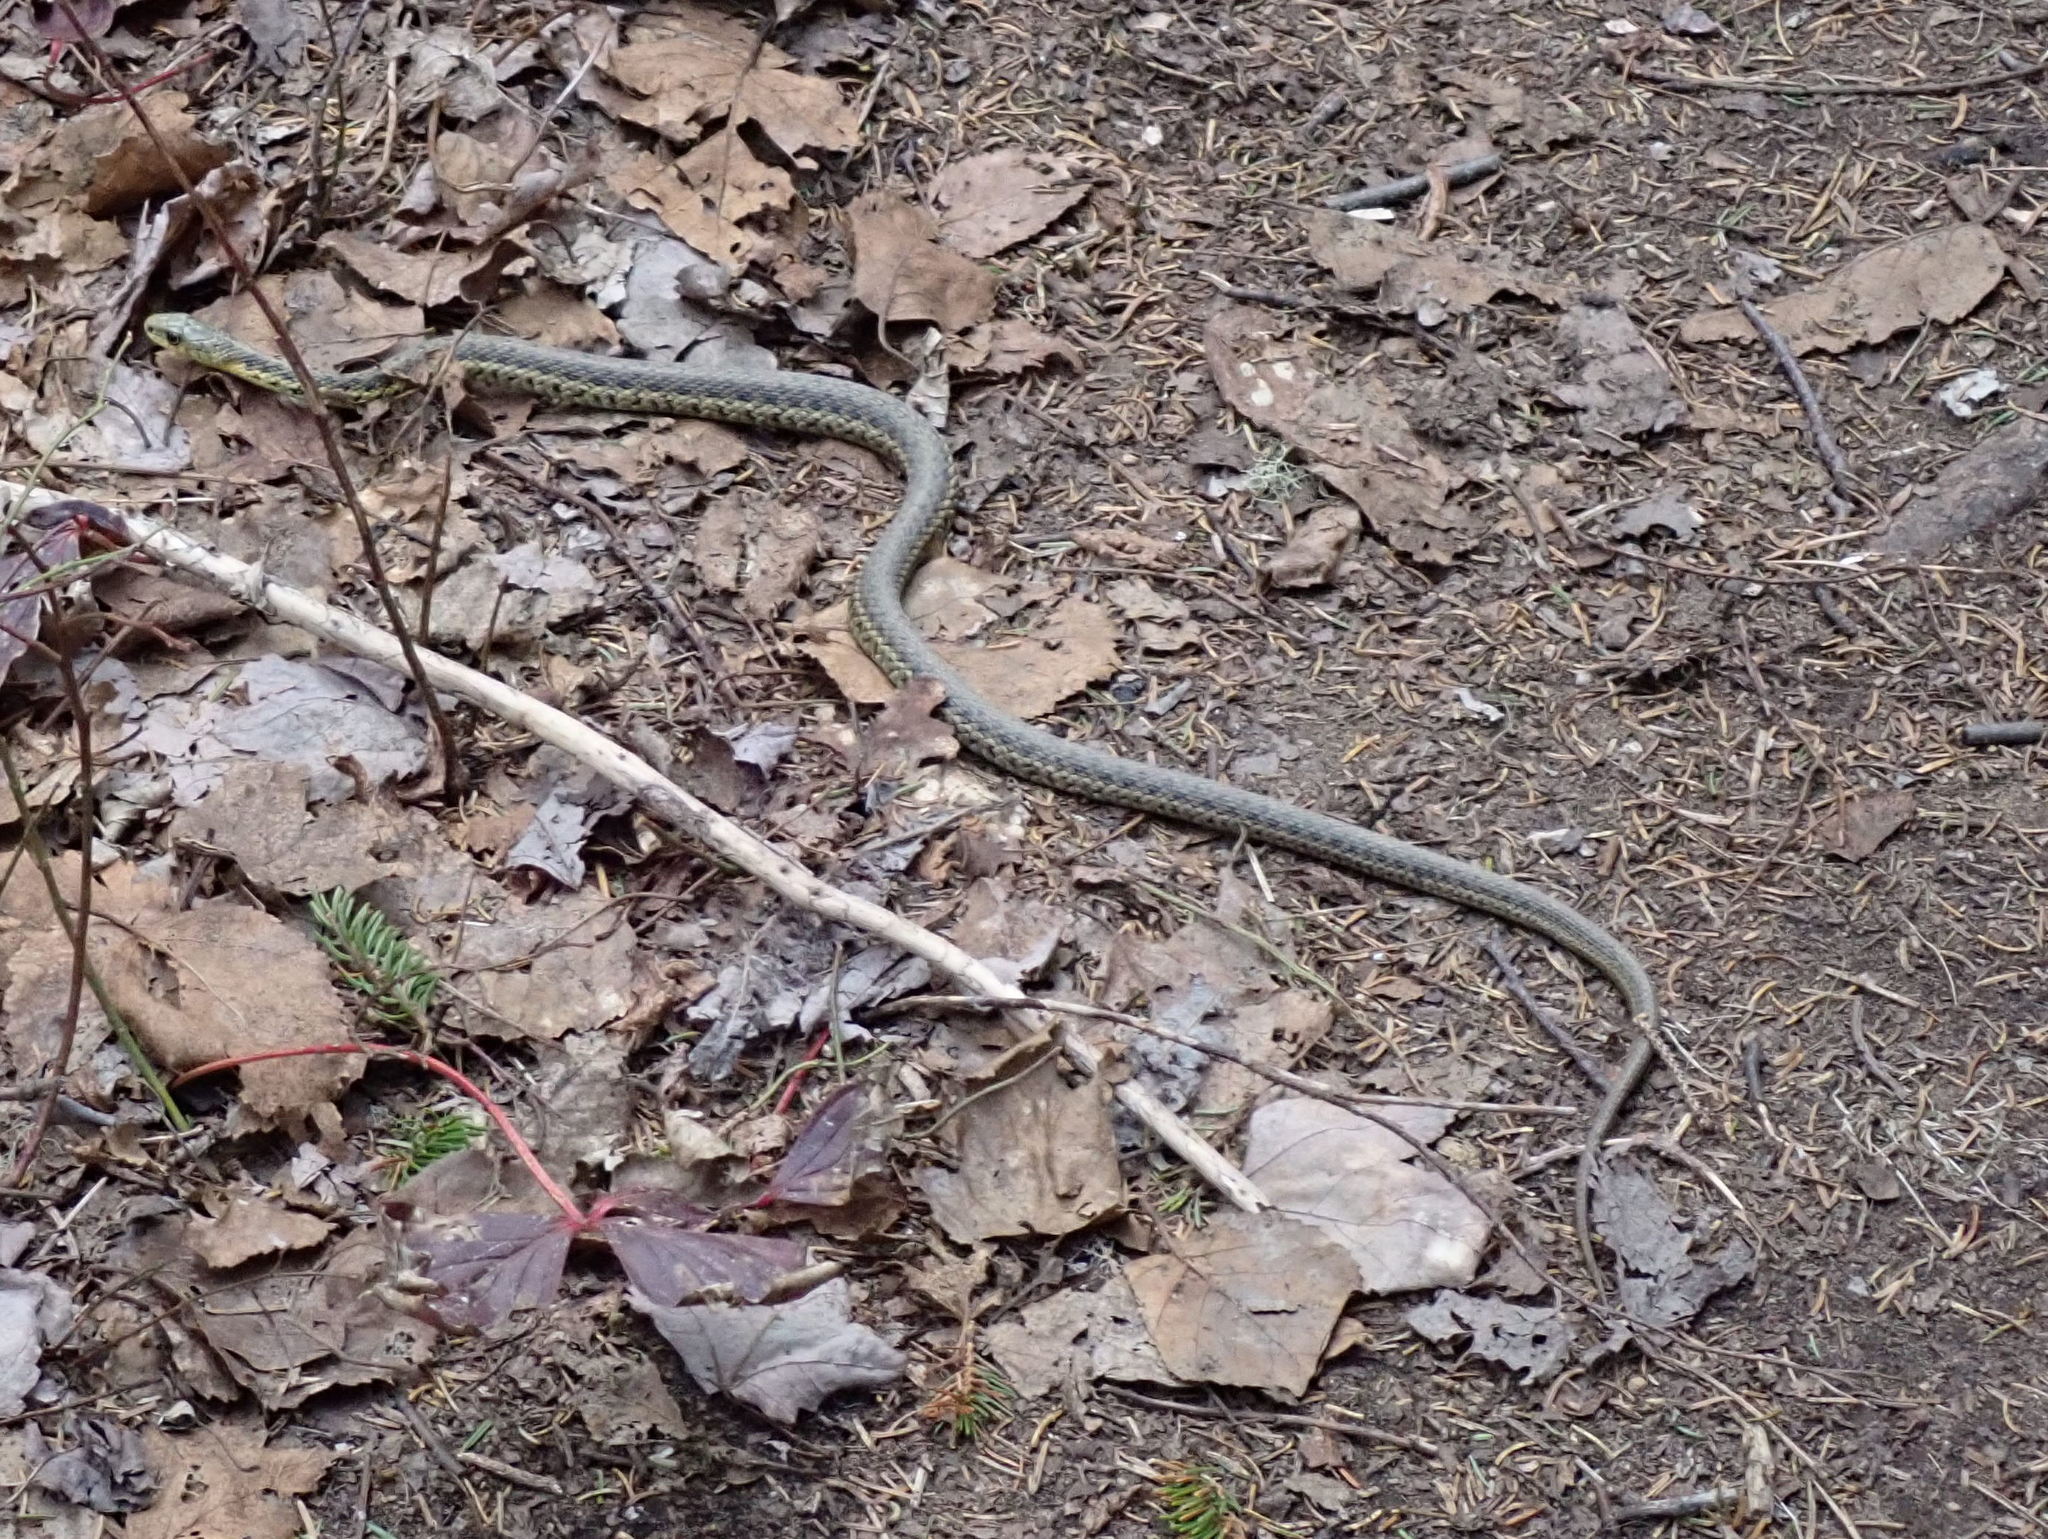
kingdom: Animalia
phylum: Chordata
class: Squamata
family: Colubridae
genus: Thamnophis
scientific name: Thamnophis sirtalis
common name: Common garter snake
